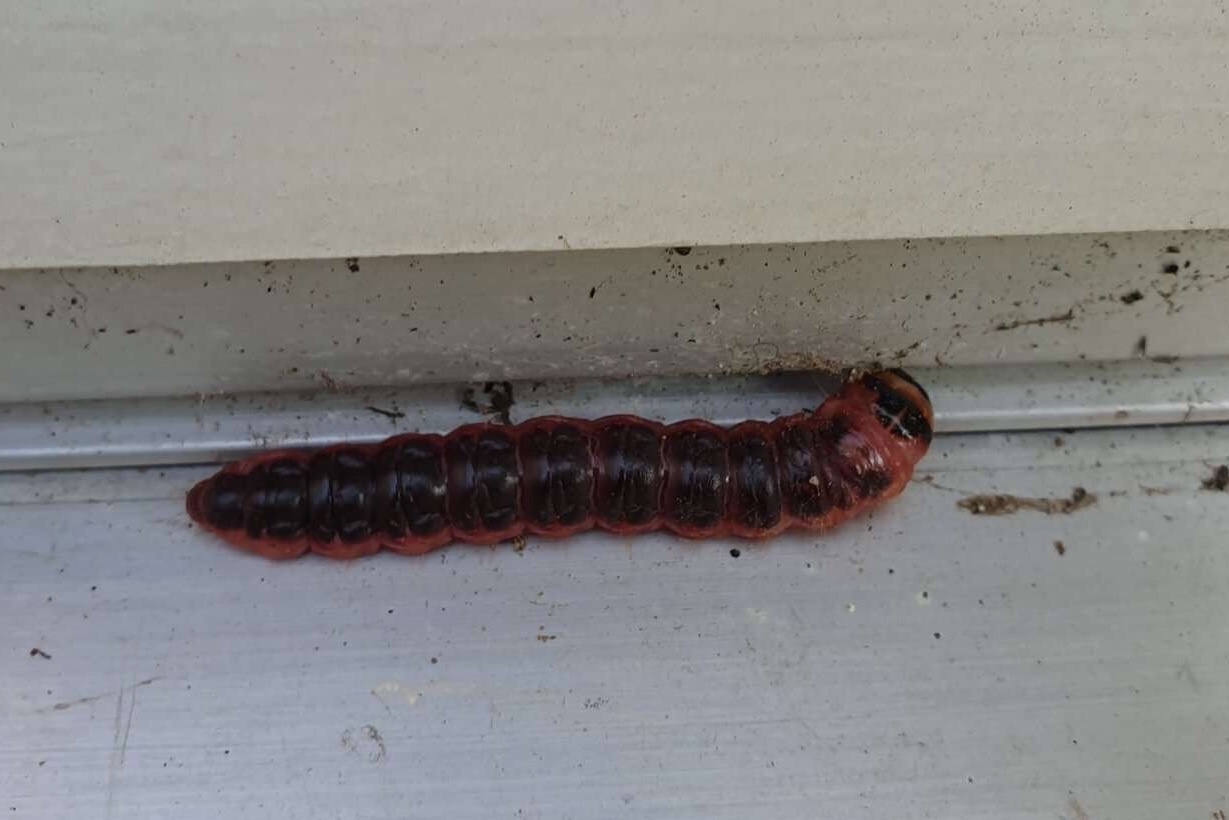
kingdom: Animalia
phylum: Arthropoda
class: Insecta
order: Lepidoptera
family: Cossidae
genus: Cossus
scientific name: Cossus cossus
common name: Goat moth
